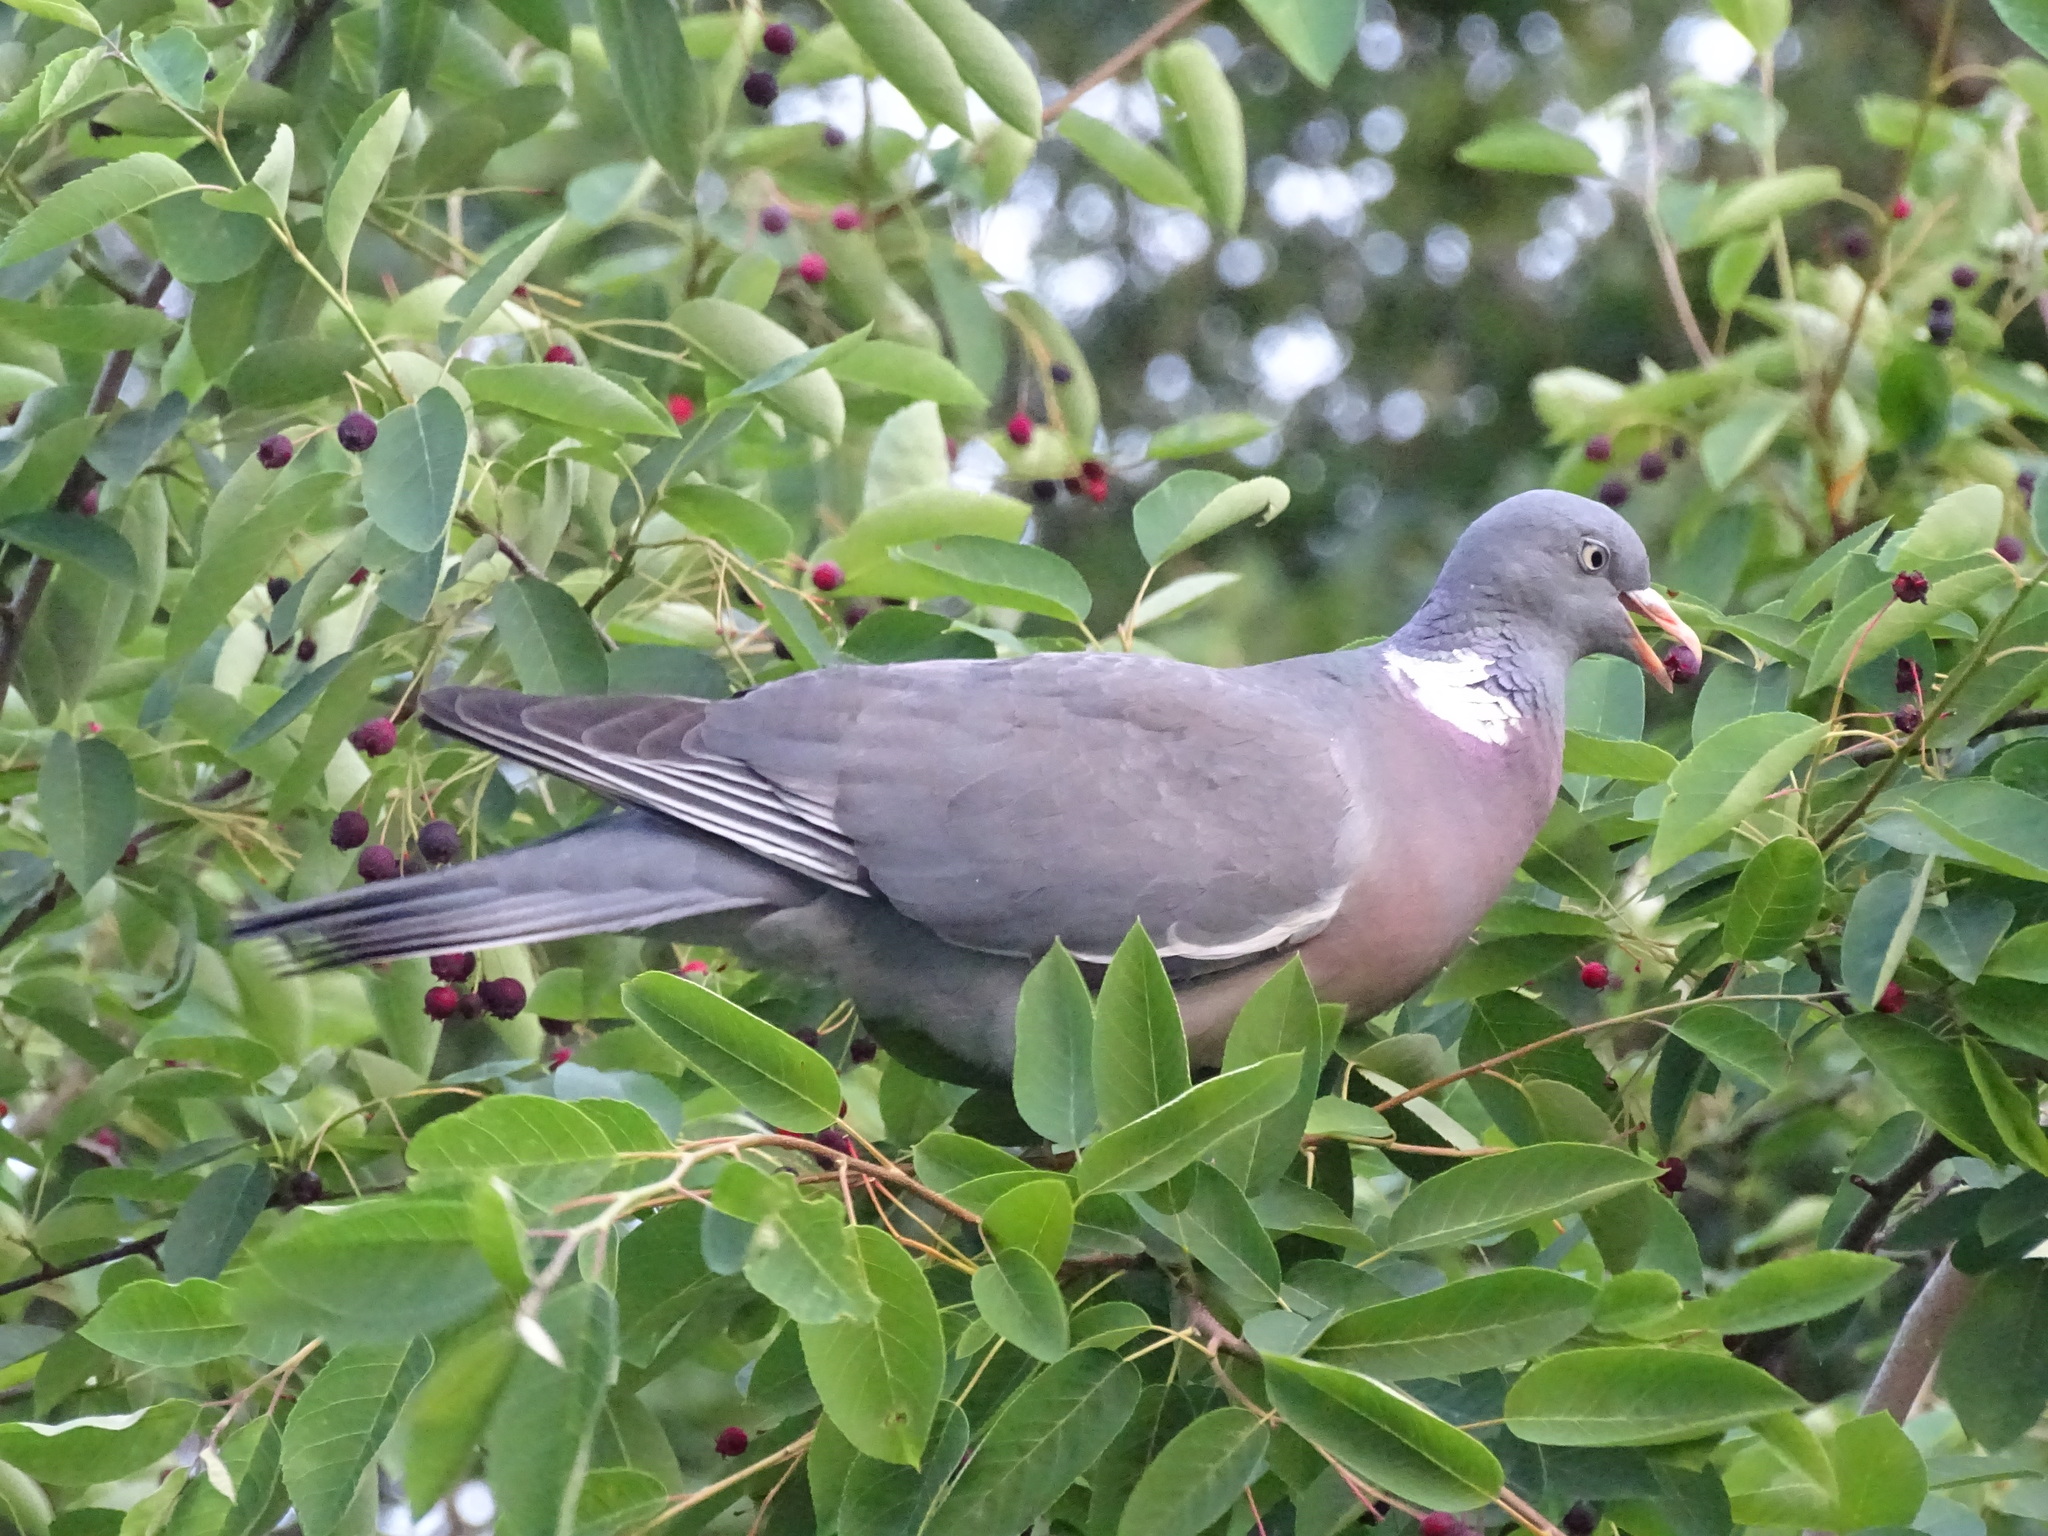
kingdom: Animalia
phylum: Chordata
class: Aves
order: Columbiformes
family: Columbidae
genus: Columba
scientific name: Columba palumbus
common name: Common wood pigeon
